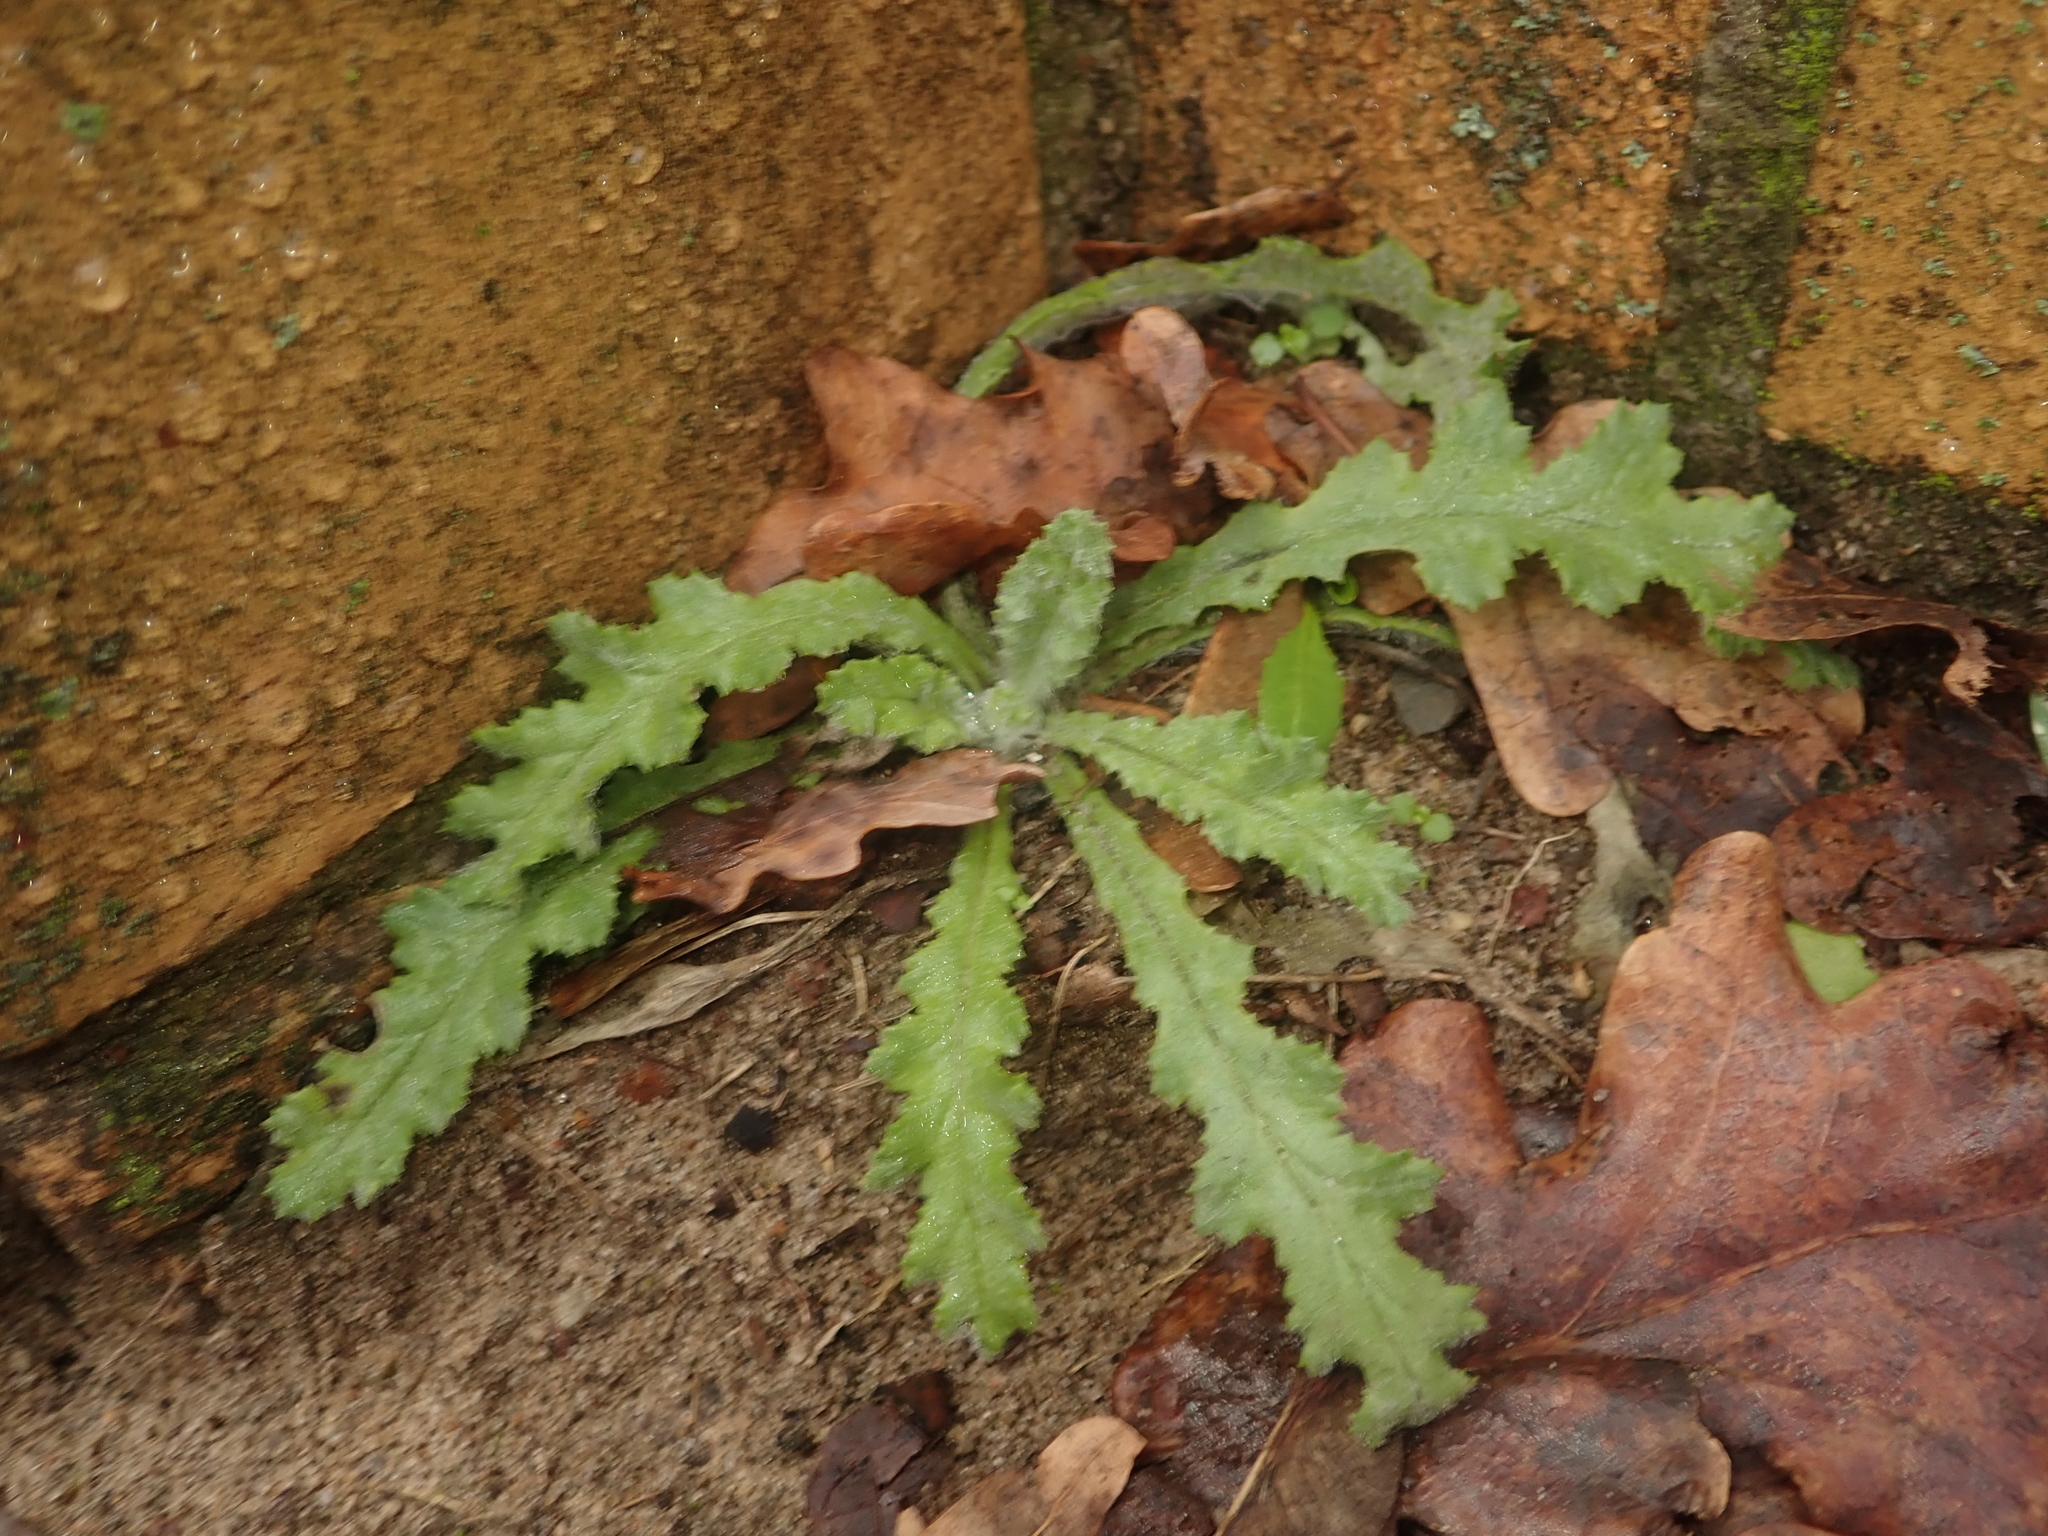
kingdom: Plantae
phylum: Tracheophyta
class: Magnoliopsida
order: Asterales
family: Asteraceae
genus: Senecio
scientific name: Senecio vulgaris
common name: Old-man-in-the-spring
